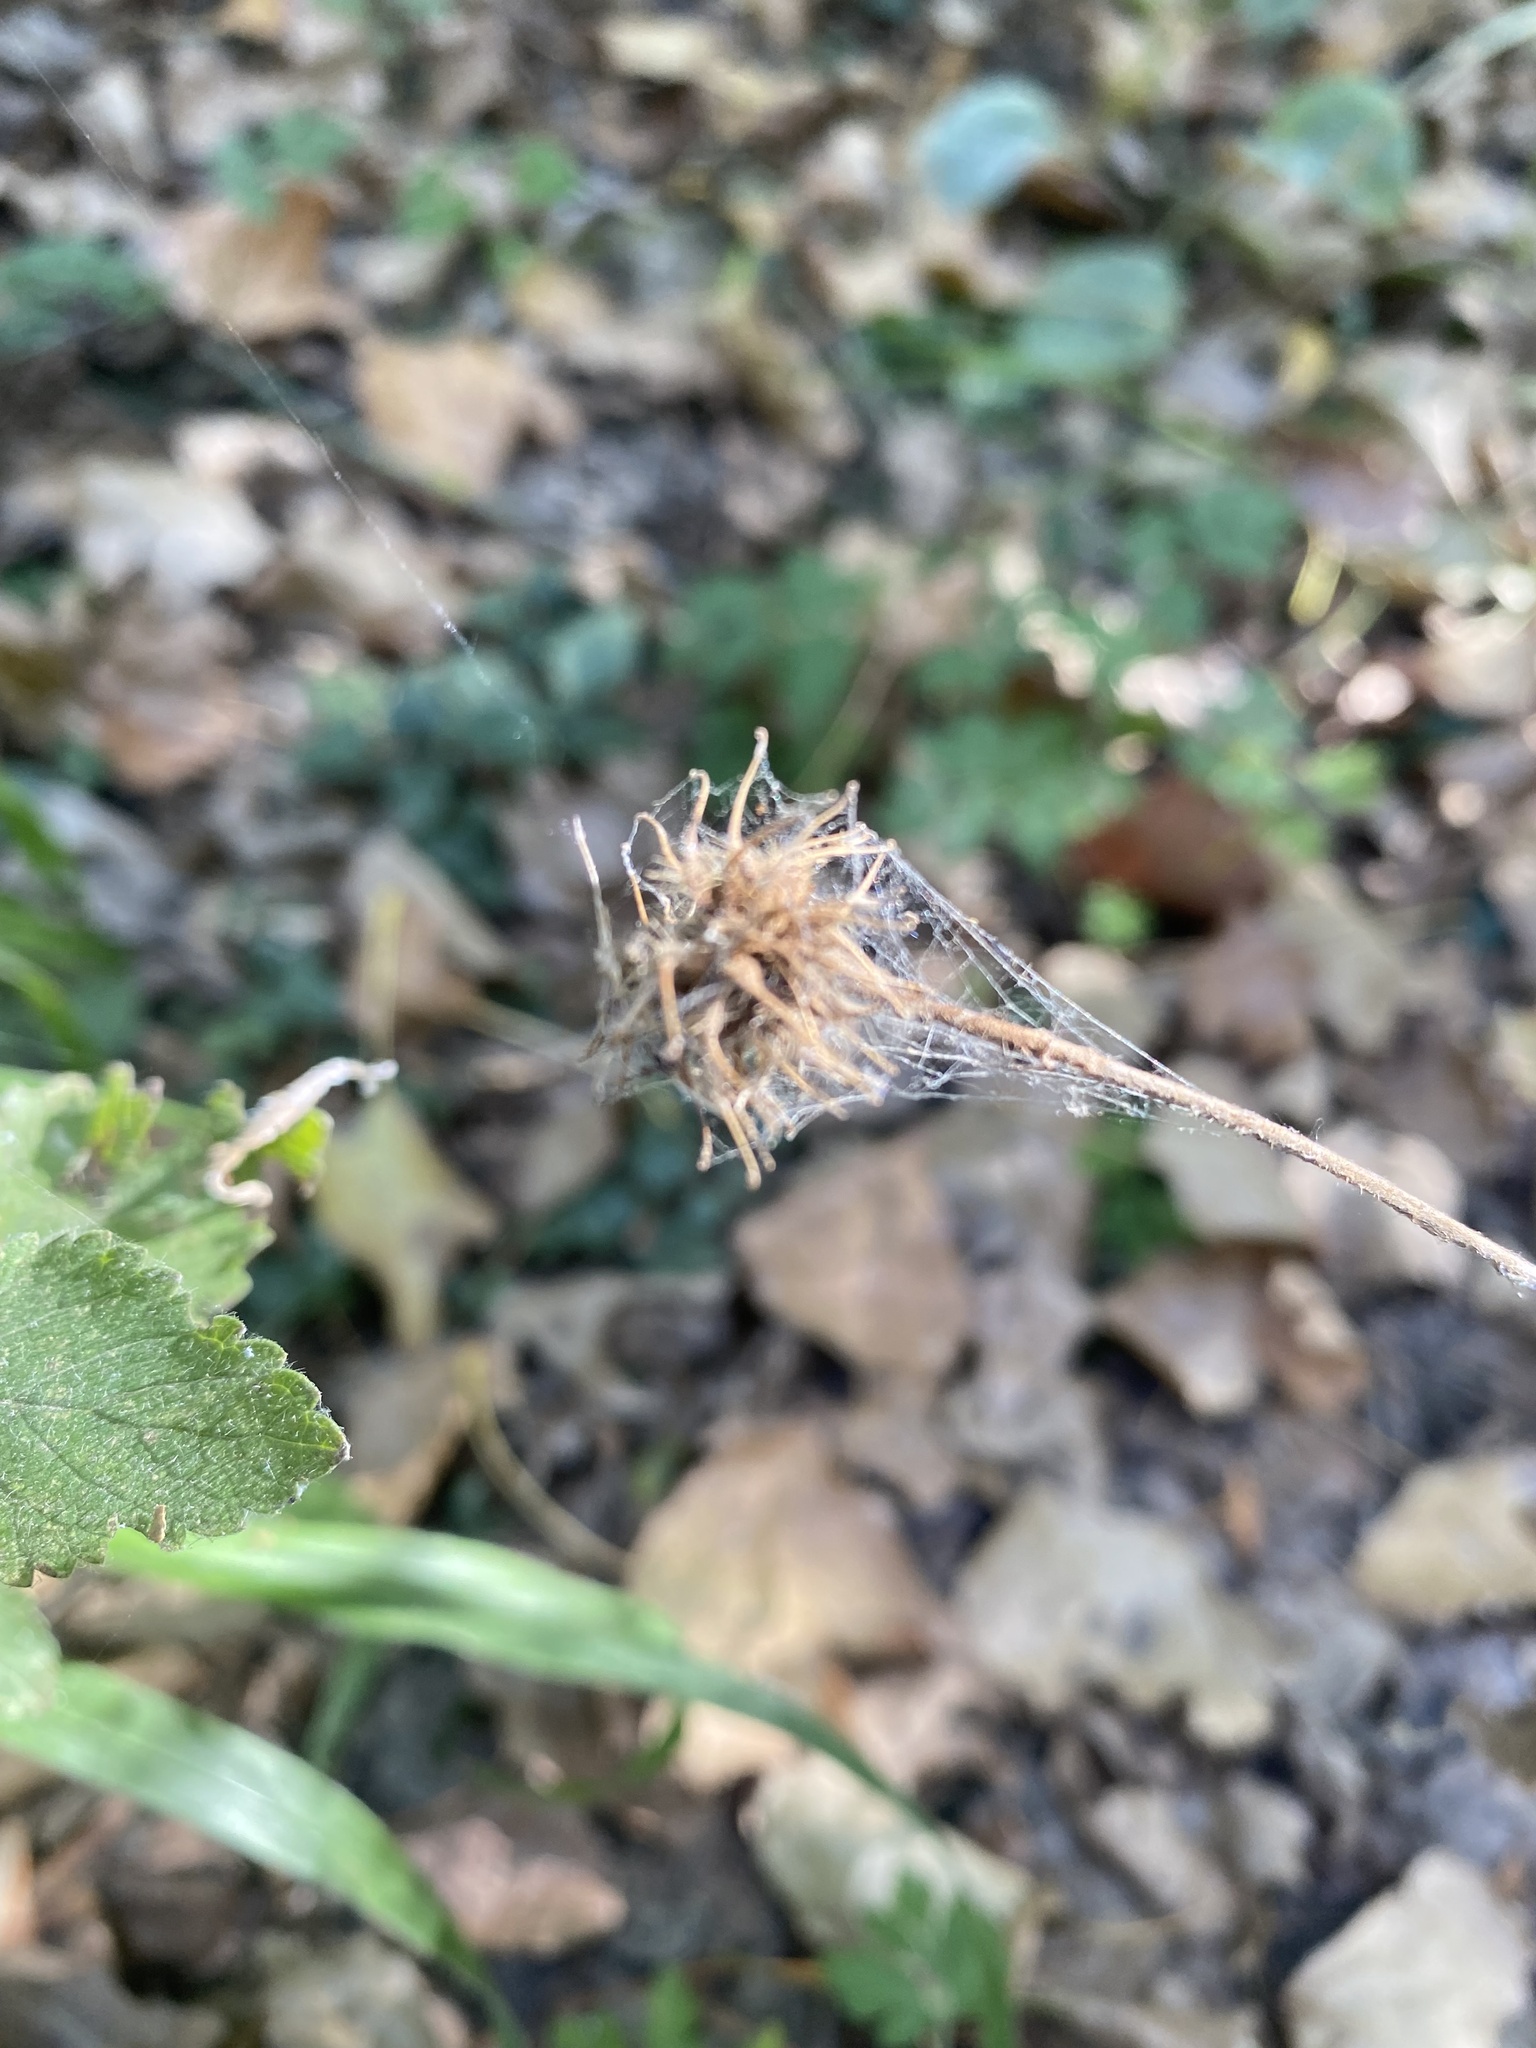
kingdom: Plantae
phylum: Tracheophyta
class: Magnoliopsida
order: Rosales
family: Rosaceae
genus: Geum
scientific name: Geum urbanum
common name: Wood avens
